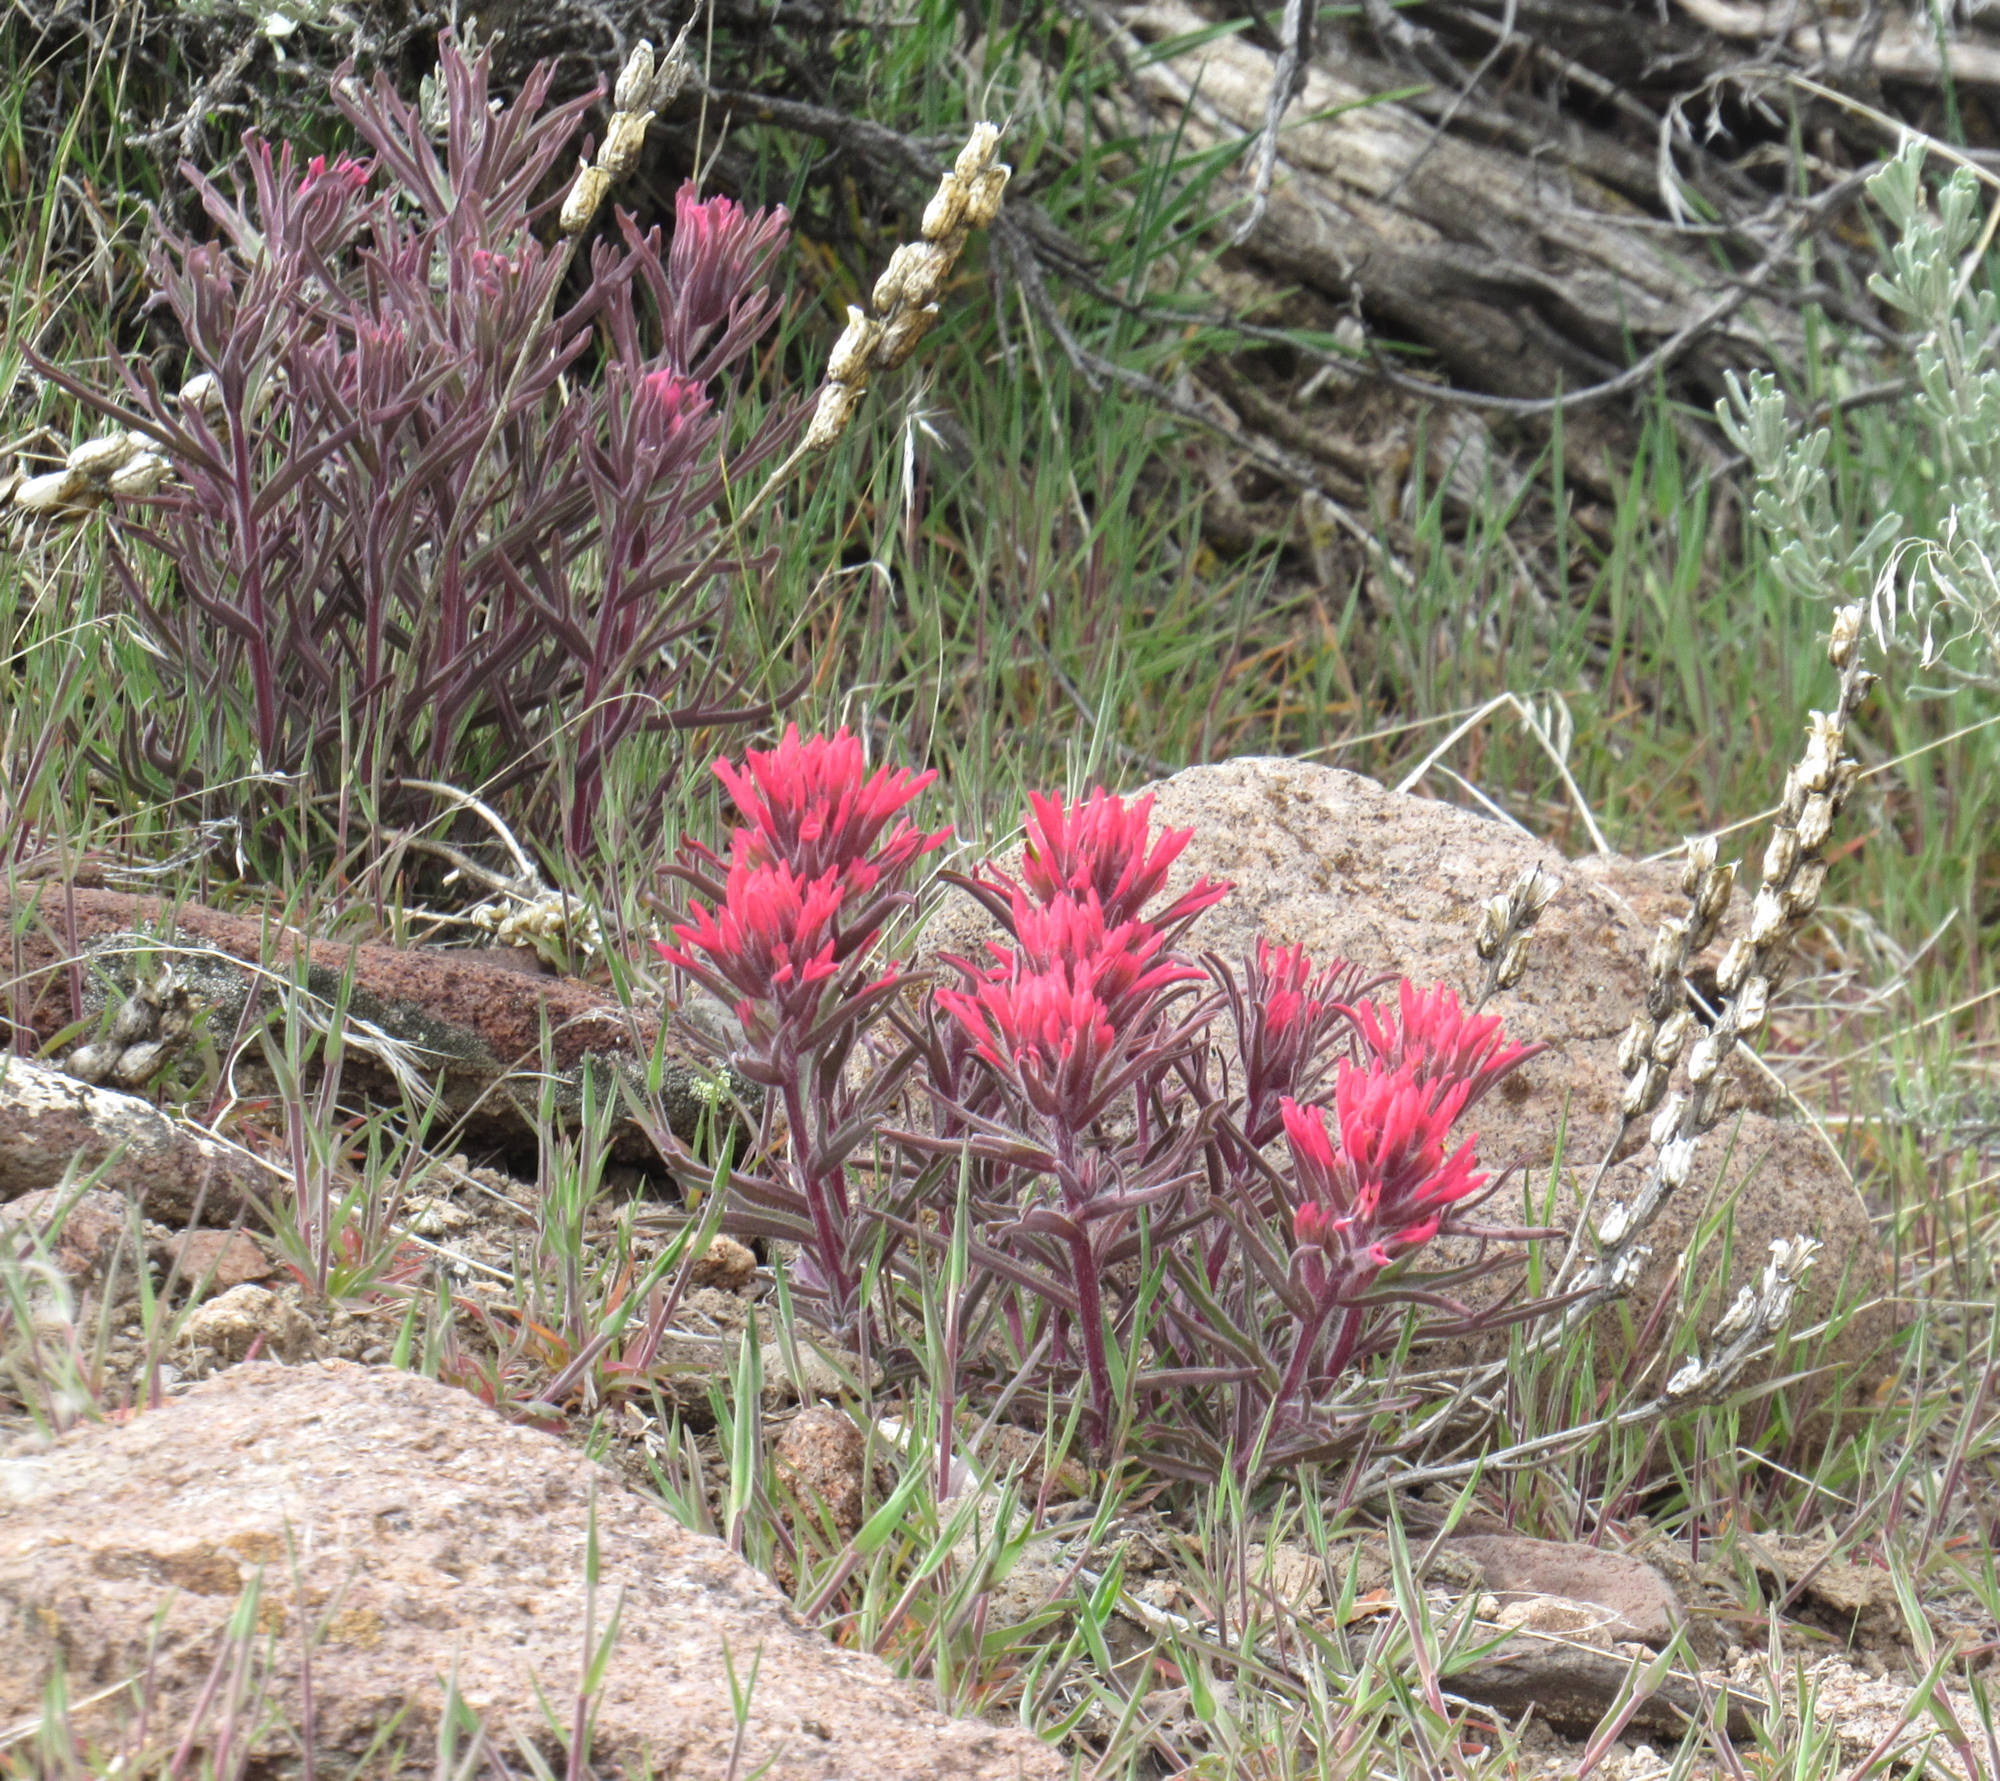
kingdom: Plantae
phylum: Tracheophyta
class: Magnoliopsida
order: Lamiales
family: Orobanchaceae
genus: Castilleja
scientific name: Castilleja angustifolia
